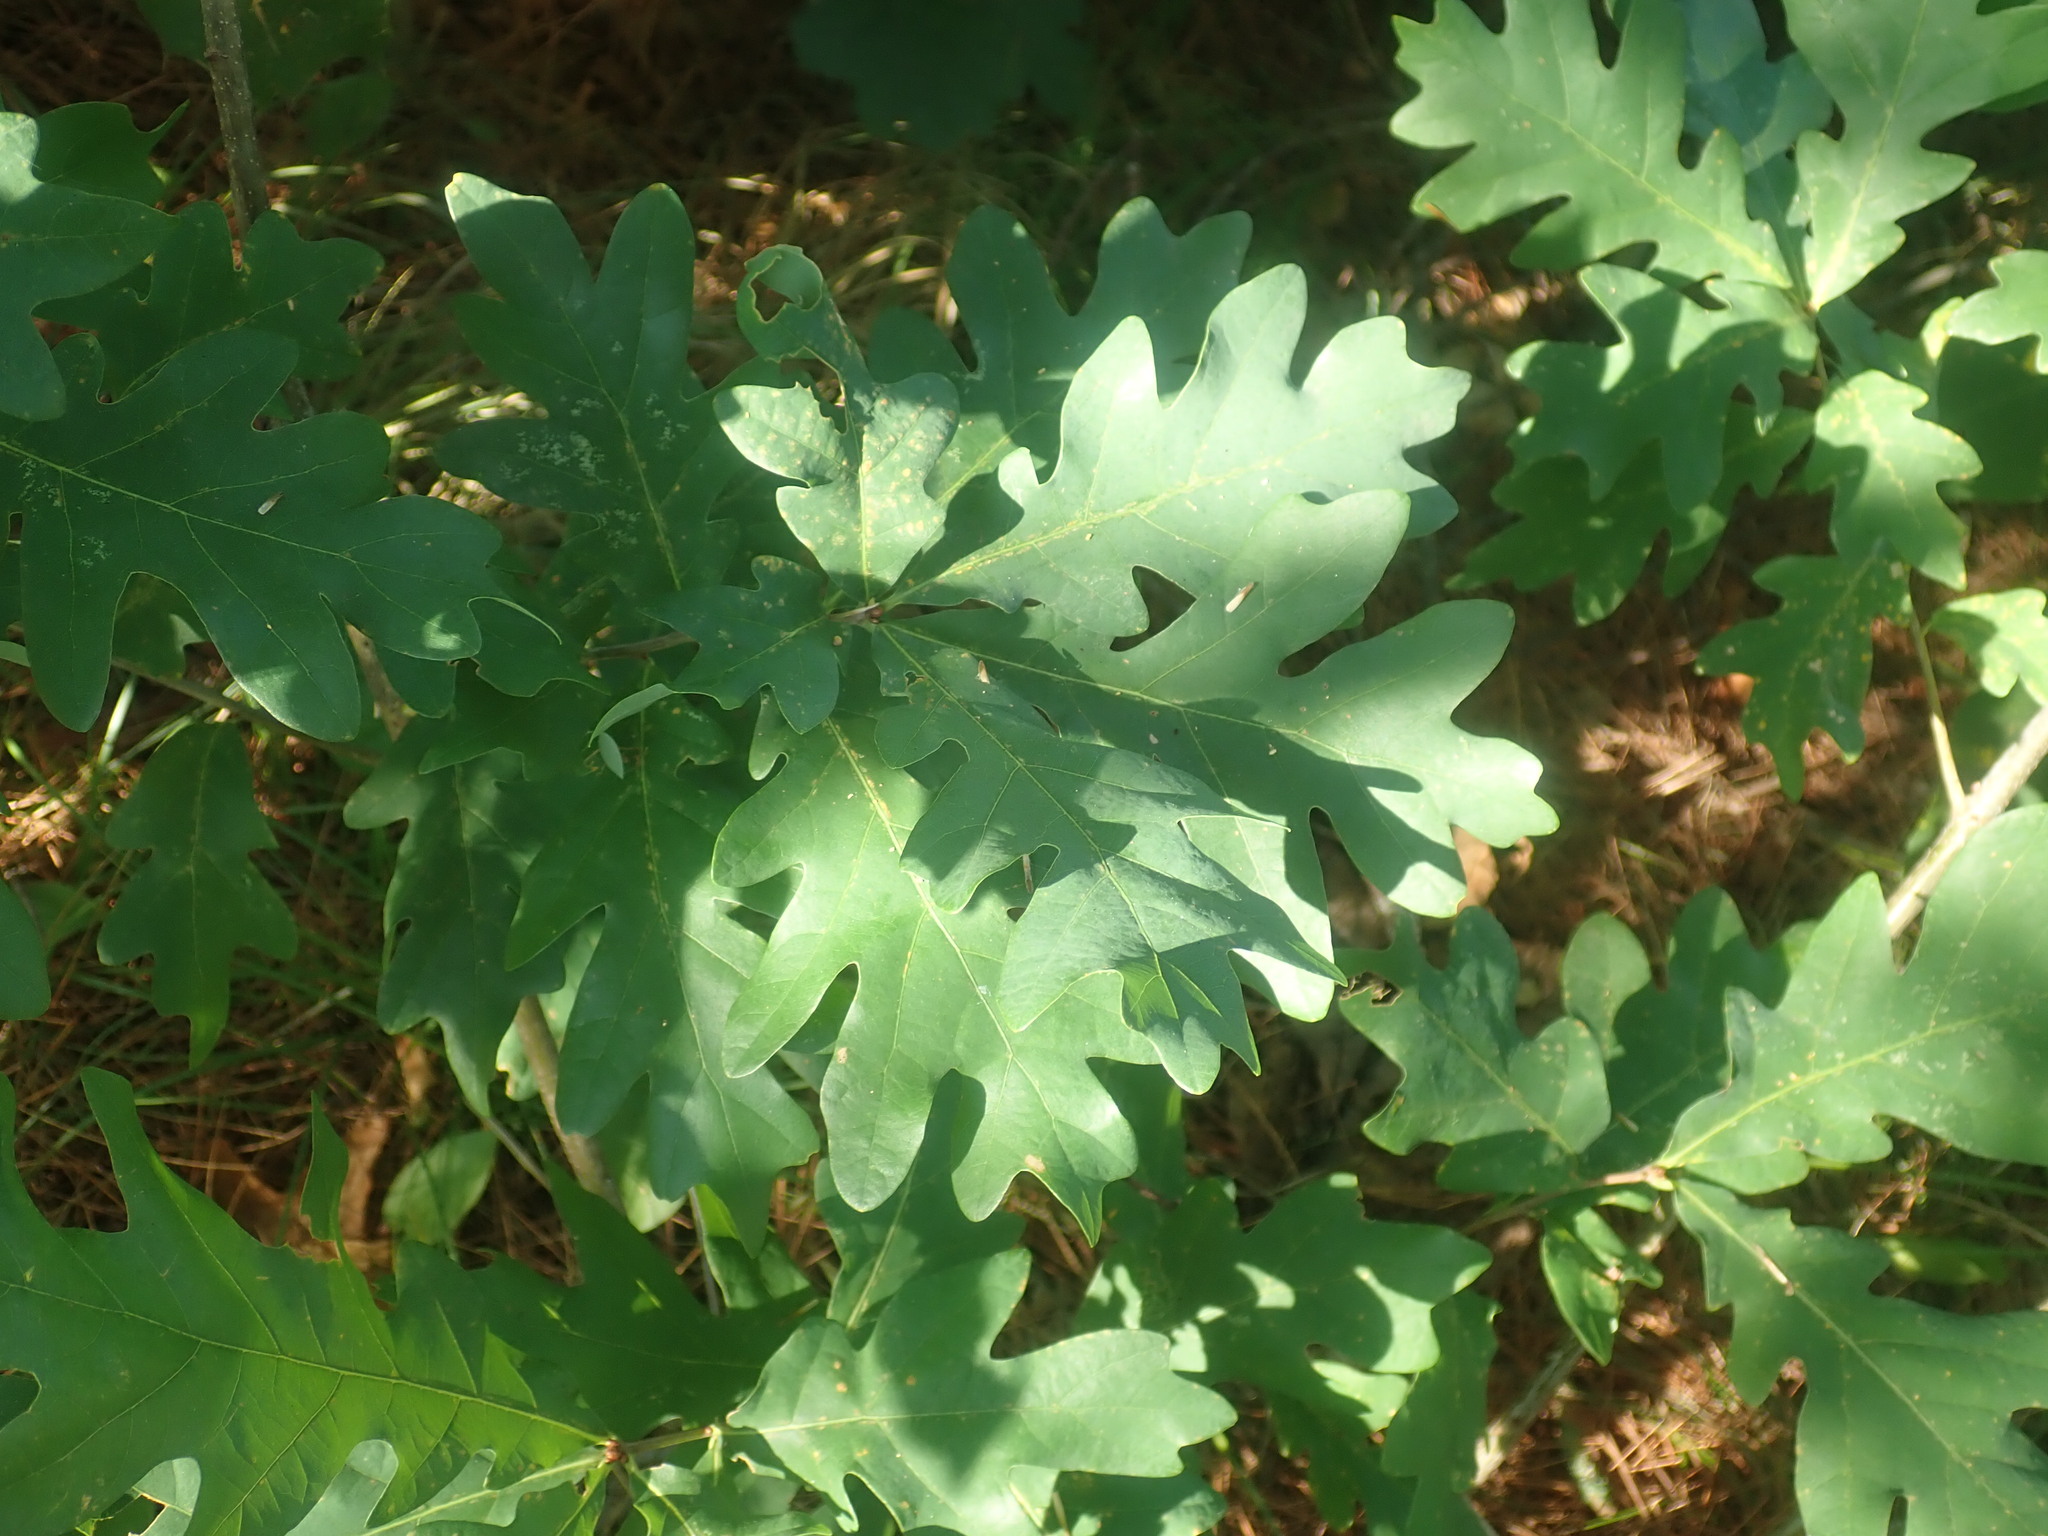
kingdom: Plantae
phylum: Tracheophyta
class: Magnoliopsida
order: Fagales
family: Fagaceae
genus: Quercus
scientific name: Quercus alba
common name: White oak
